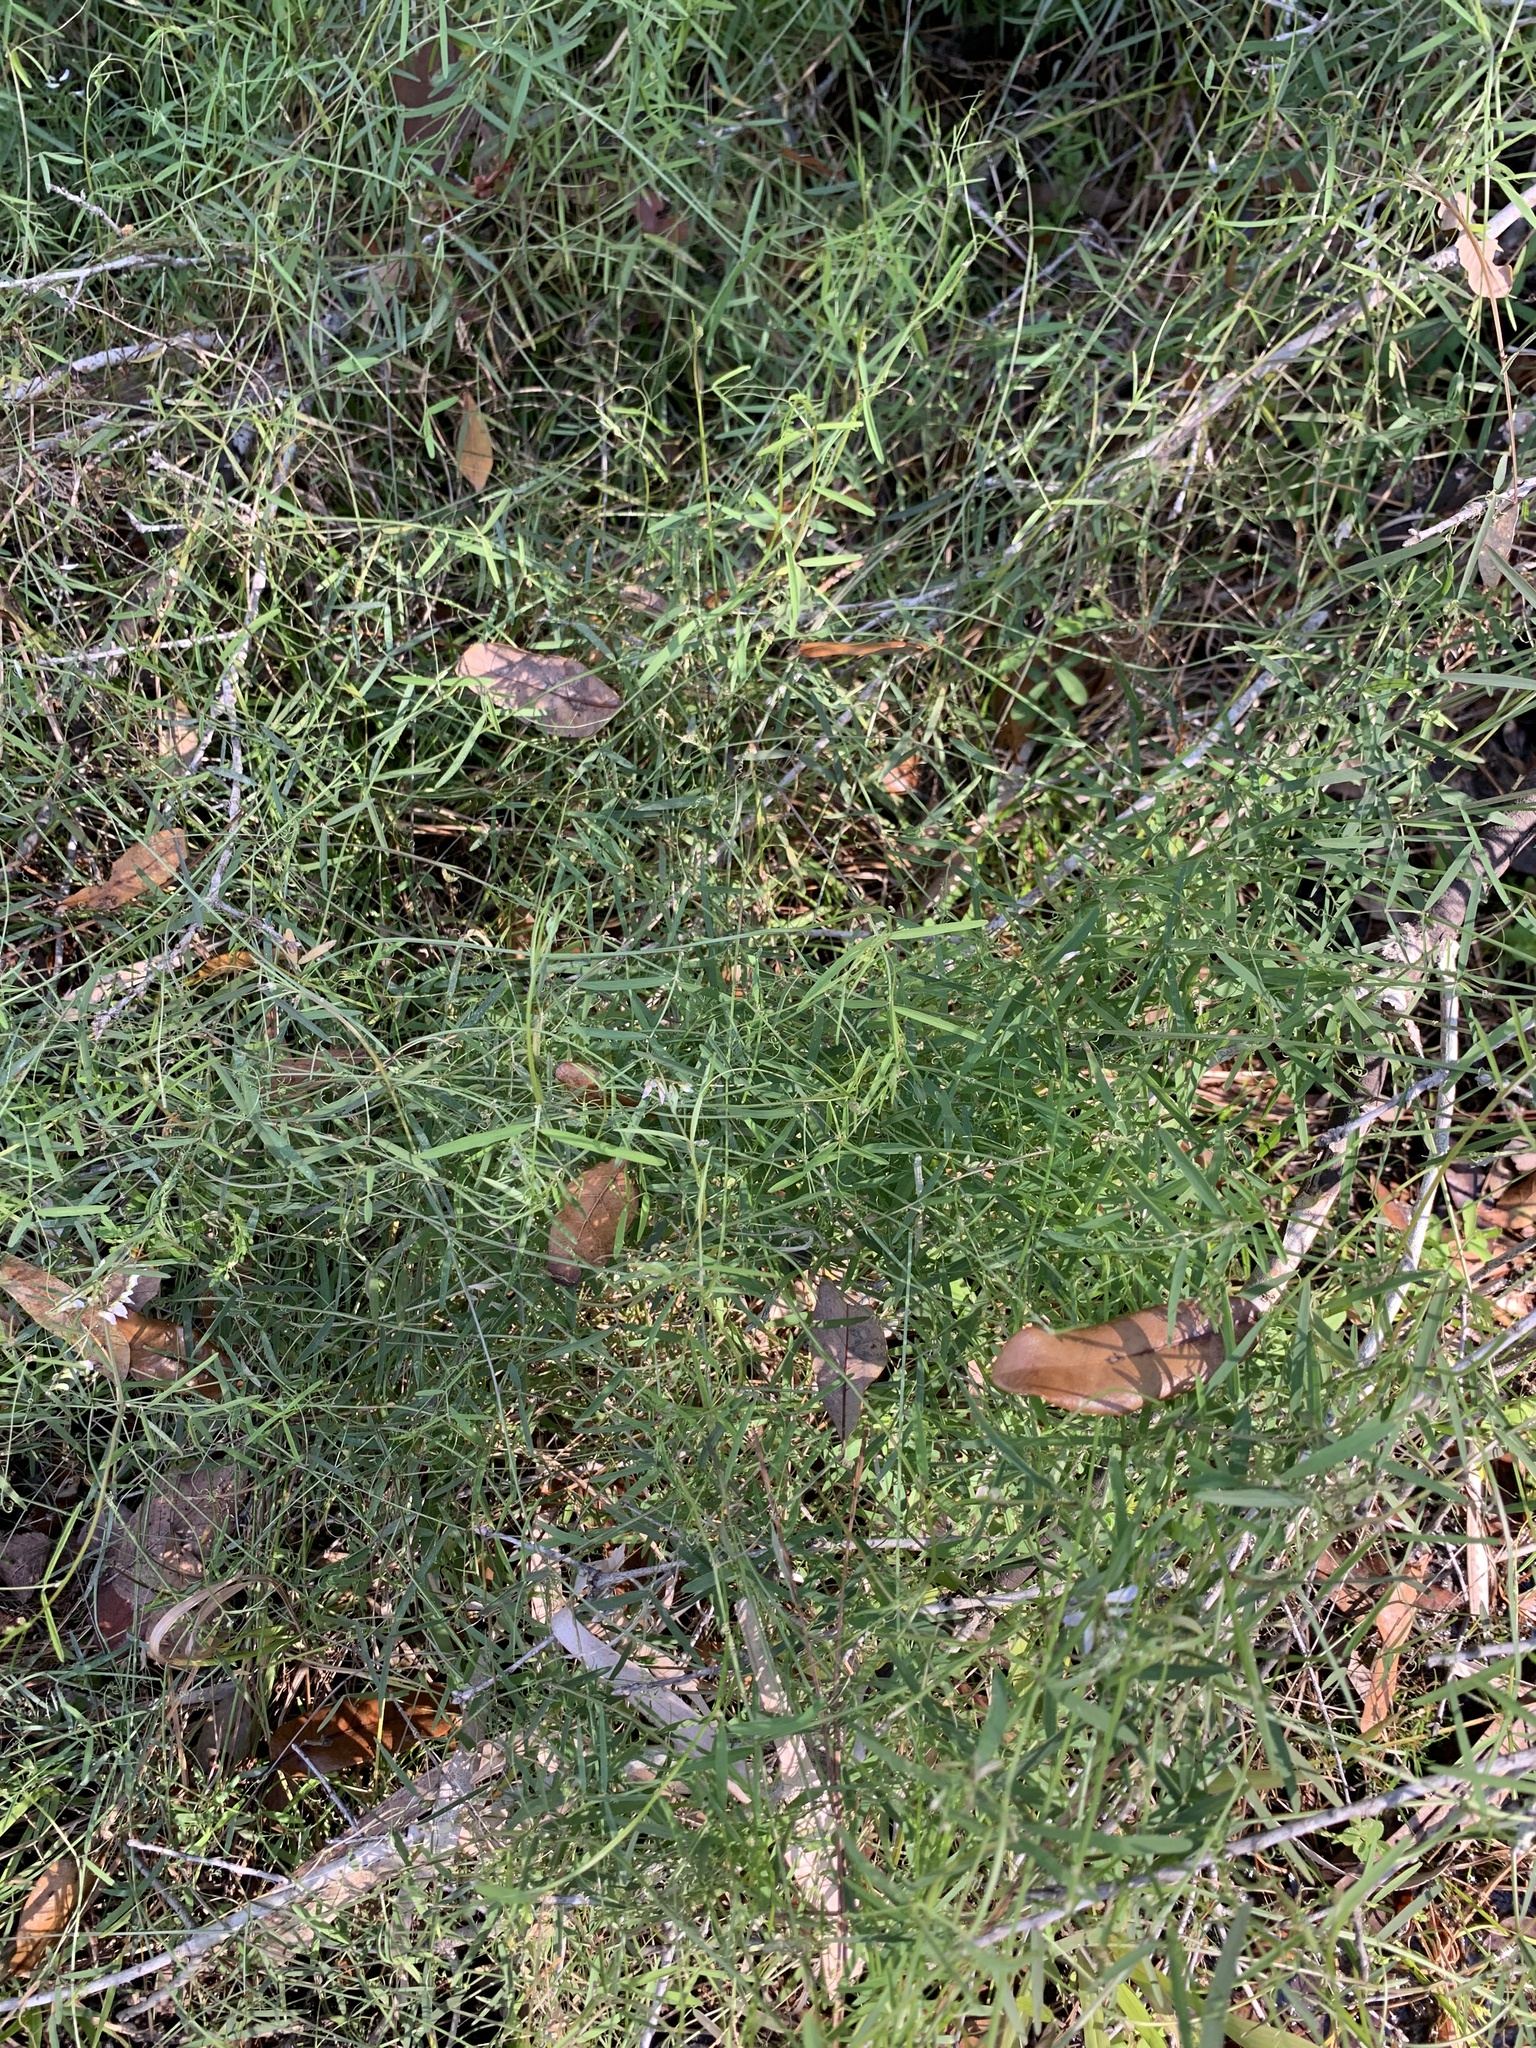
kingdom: Plantae
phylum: Tracheophyta
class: Magnoliopsida
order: Fabales
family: Fabaceae
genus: Vicia
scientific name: Vicia acutifolia
